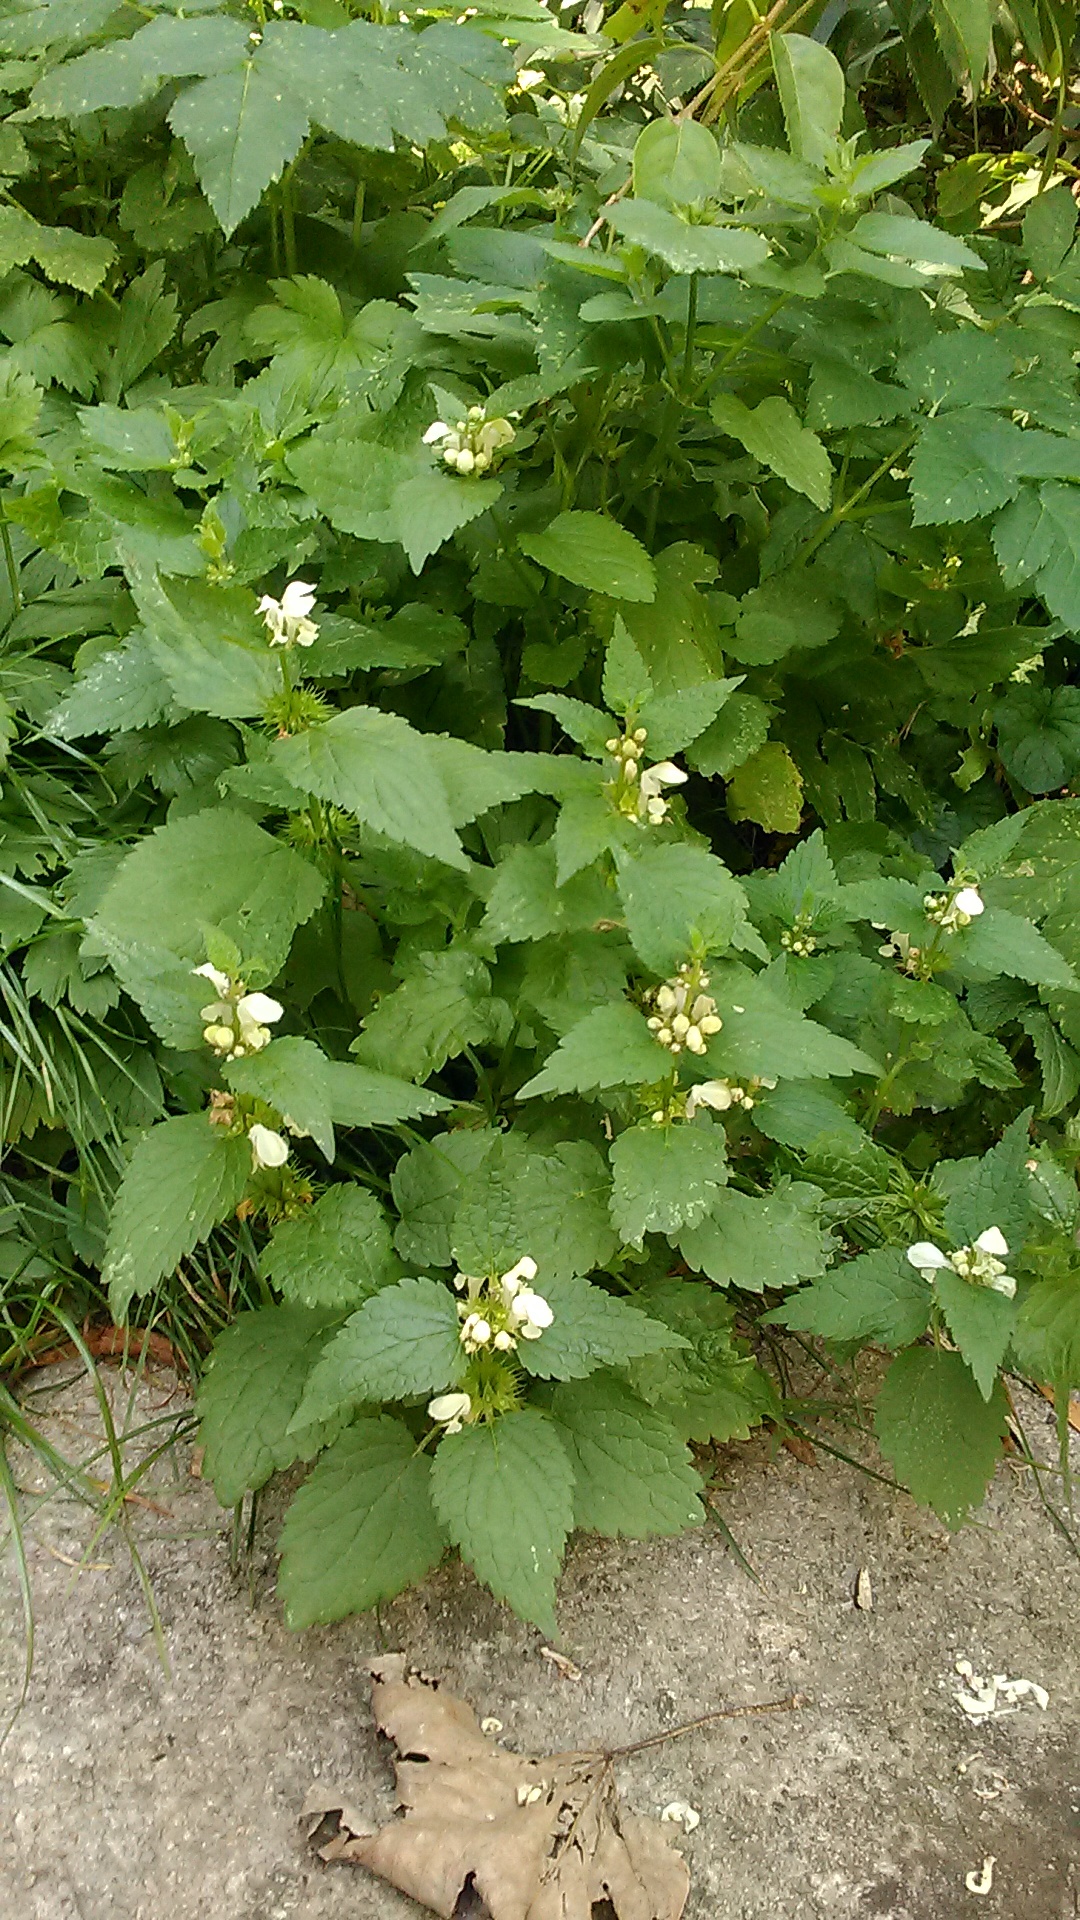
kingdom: Plantae
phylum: Tracheophyta
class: Magnoliopsida
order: Lamiales
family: Lamiaceae
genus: Lamium
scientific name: Lamium album
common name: White dead-nettle
